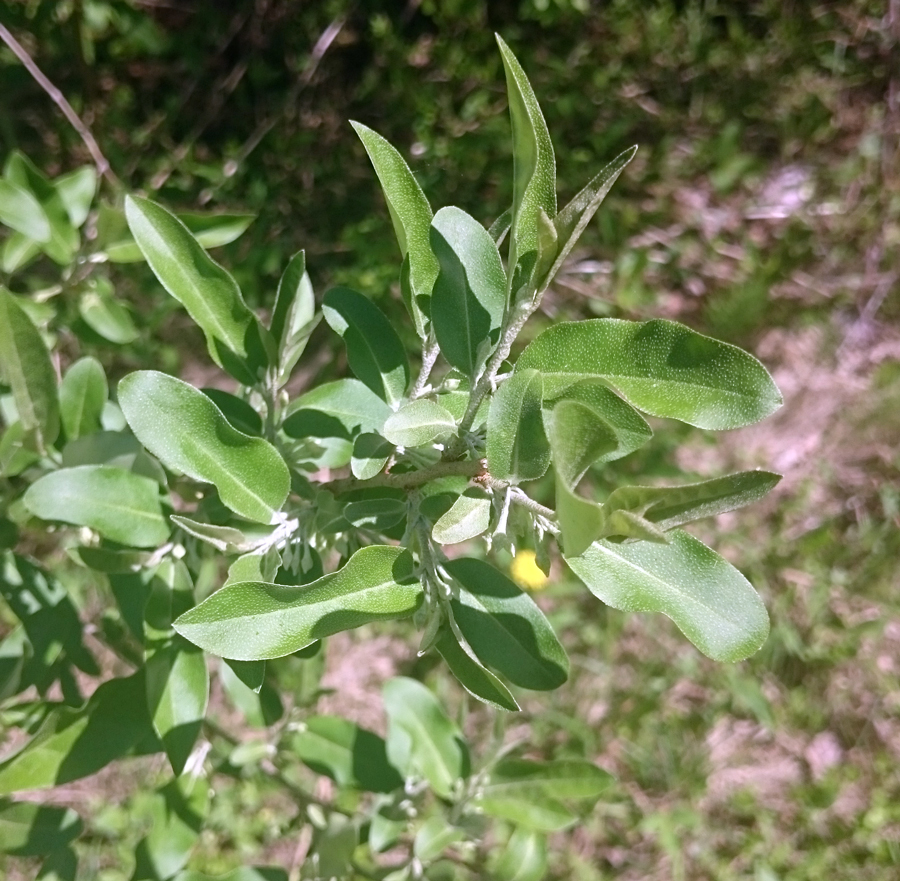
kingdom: Plantae
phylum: Tracheophyta
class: Magnoliopsida
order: Rosales
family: Elaeagnaceae
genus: Elaeagnus
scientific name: Elaeagnus umbellata
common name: Autumn olive
